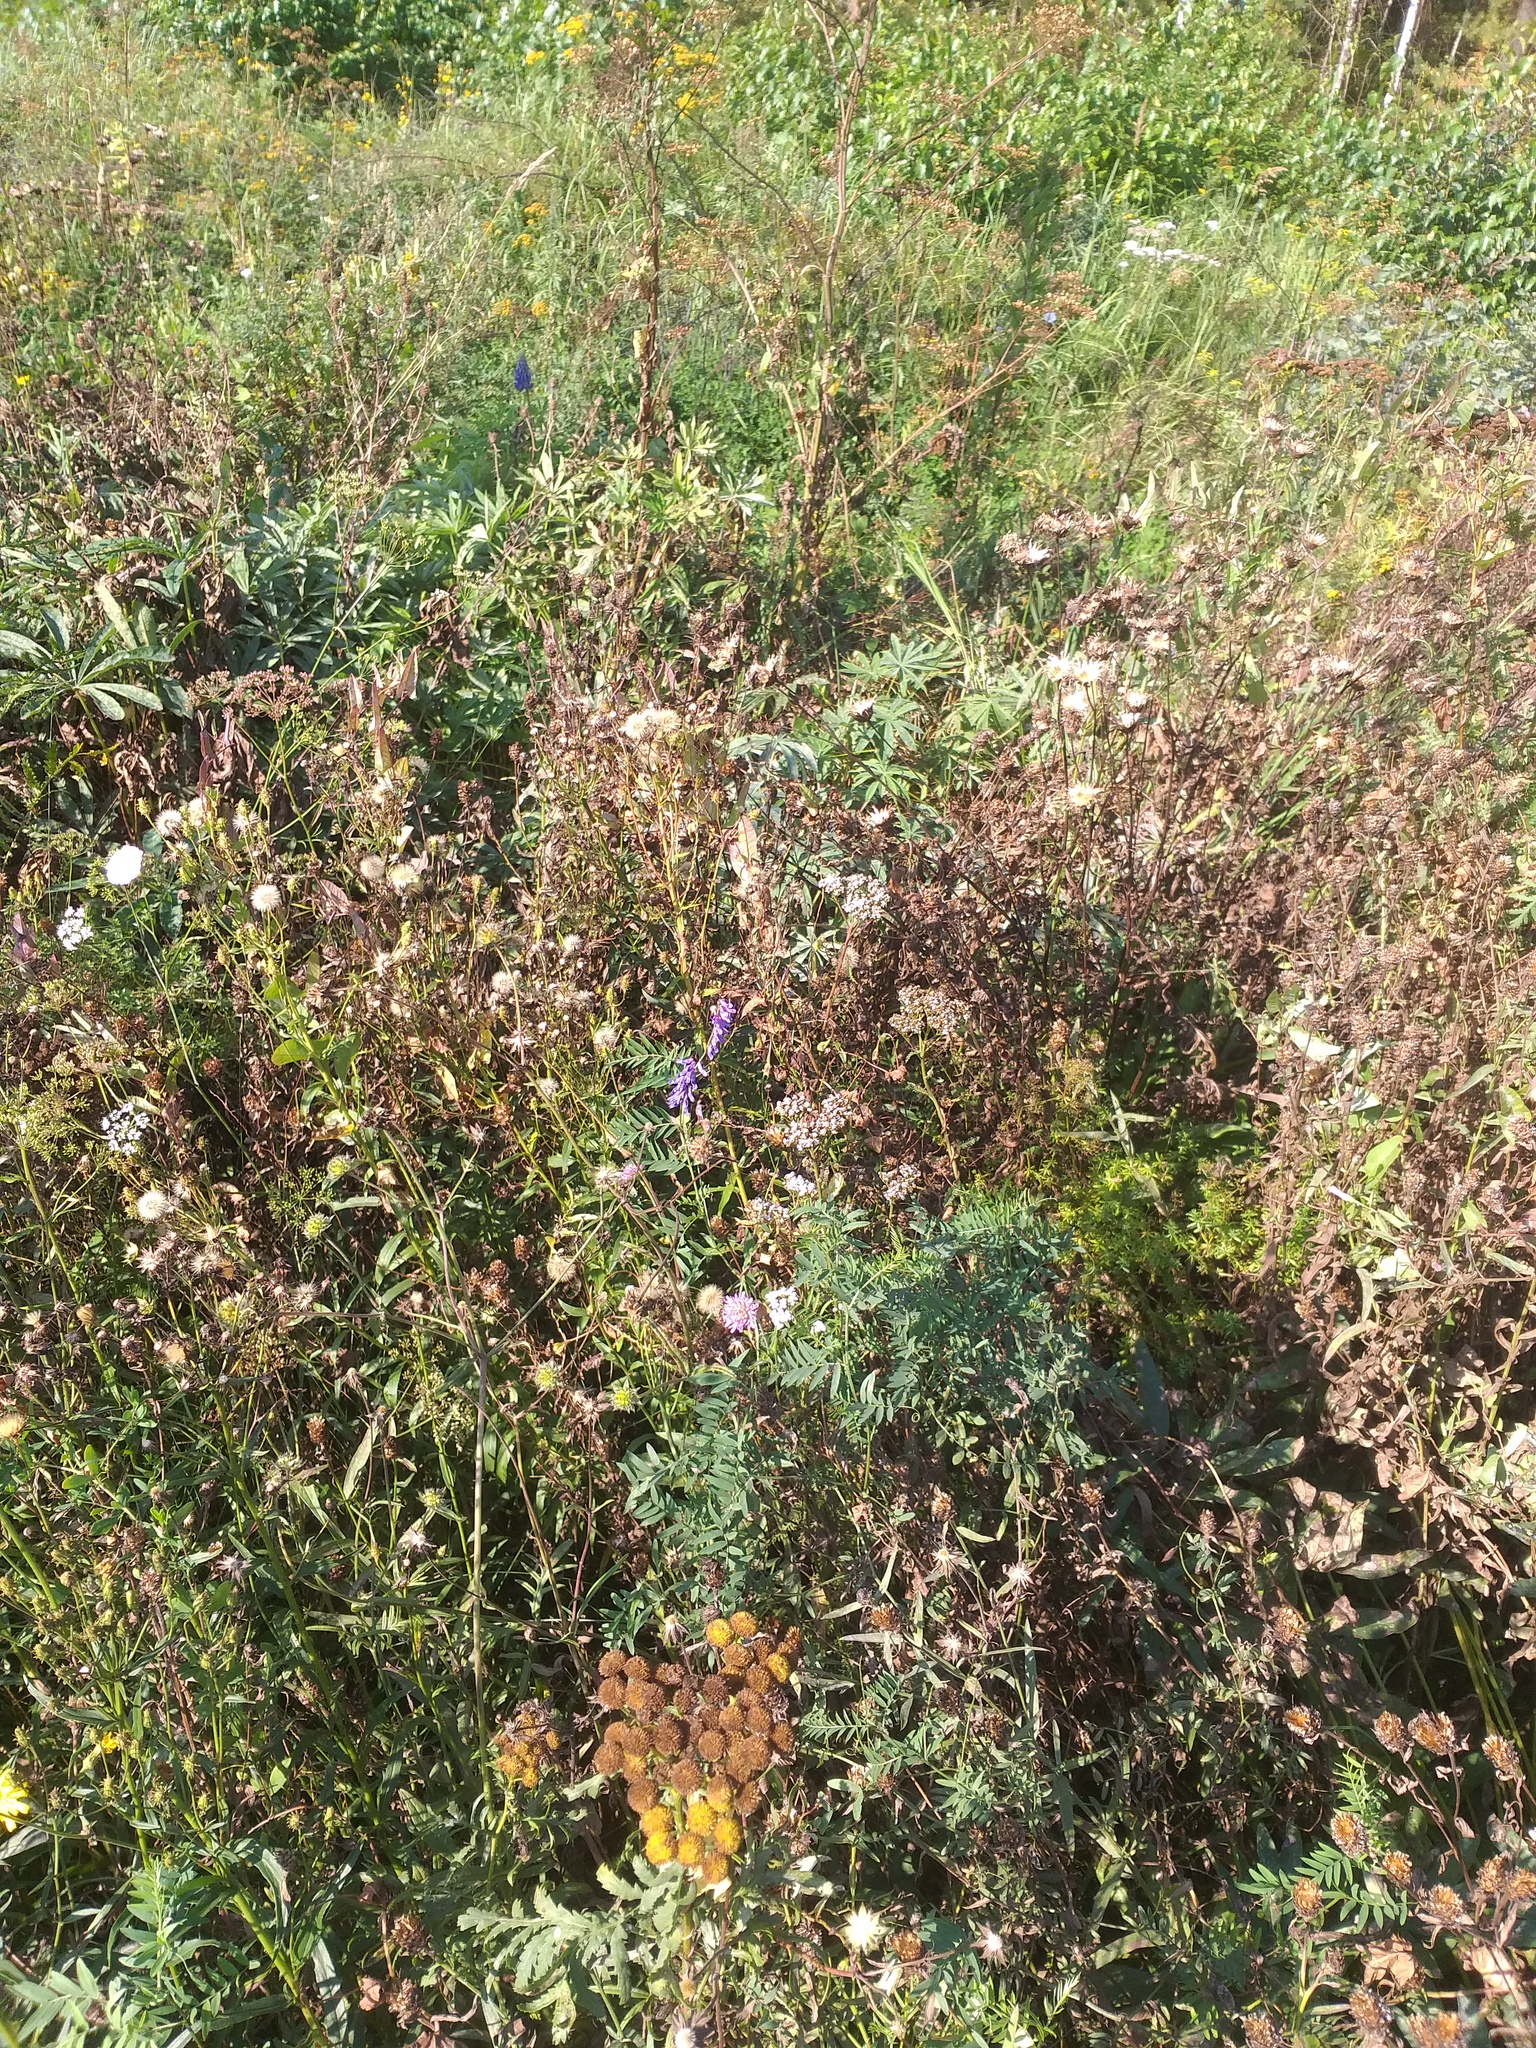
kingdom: Plantae
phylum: Tracheophyta
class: Magnoliopsida
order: Fabales
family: Fabaceae
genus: Vicia
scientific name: Vicia cracca
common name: Bird vetch
